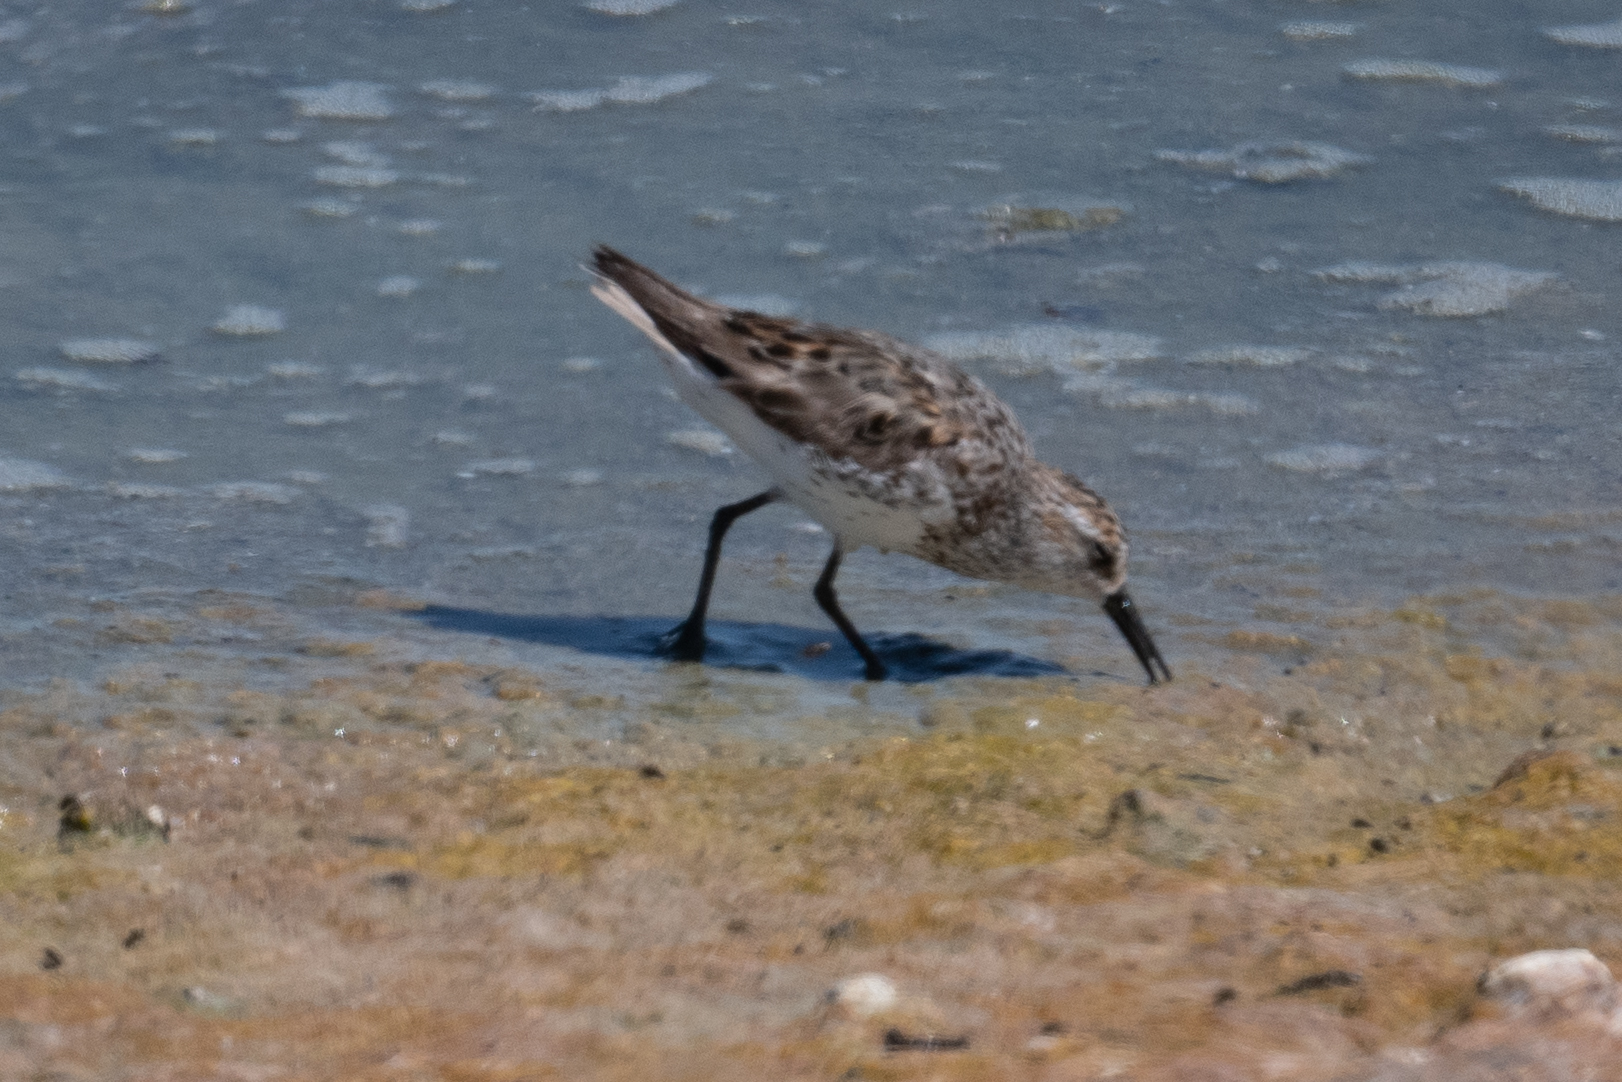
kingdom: Animalia
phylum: Chordata
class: Aves
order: Charadriiformes
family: Scolopacidae
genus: Calidris
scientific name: Calidris mauri
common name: Western sandpiper
